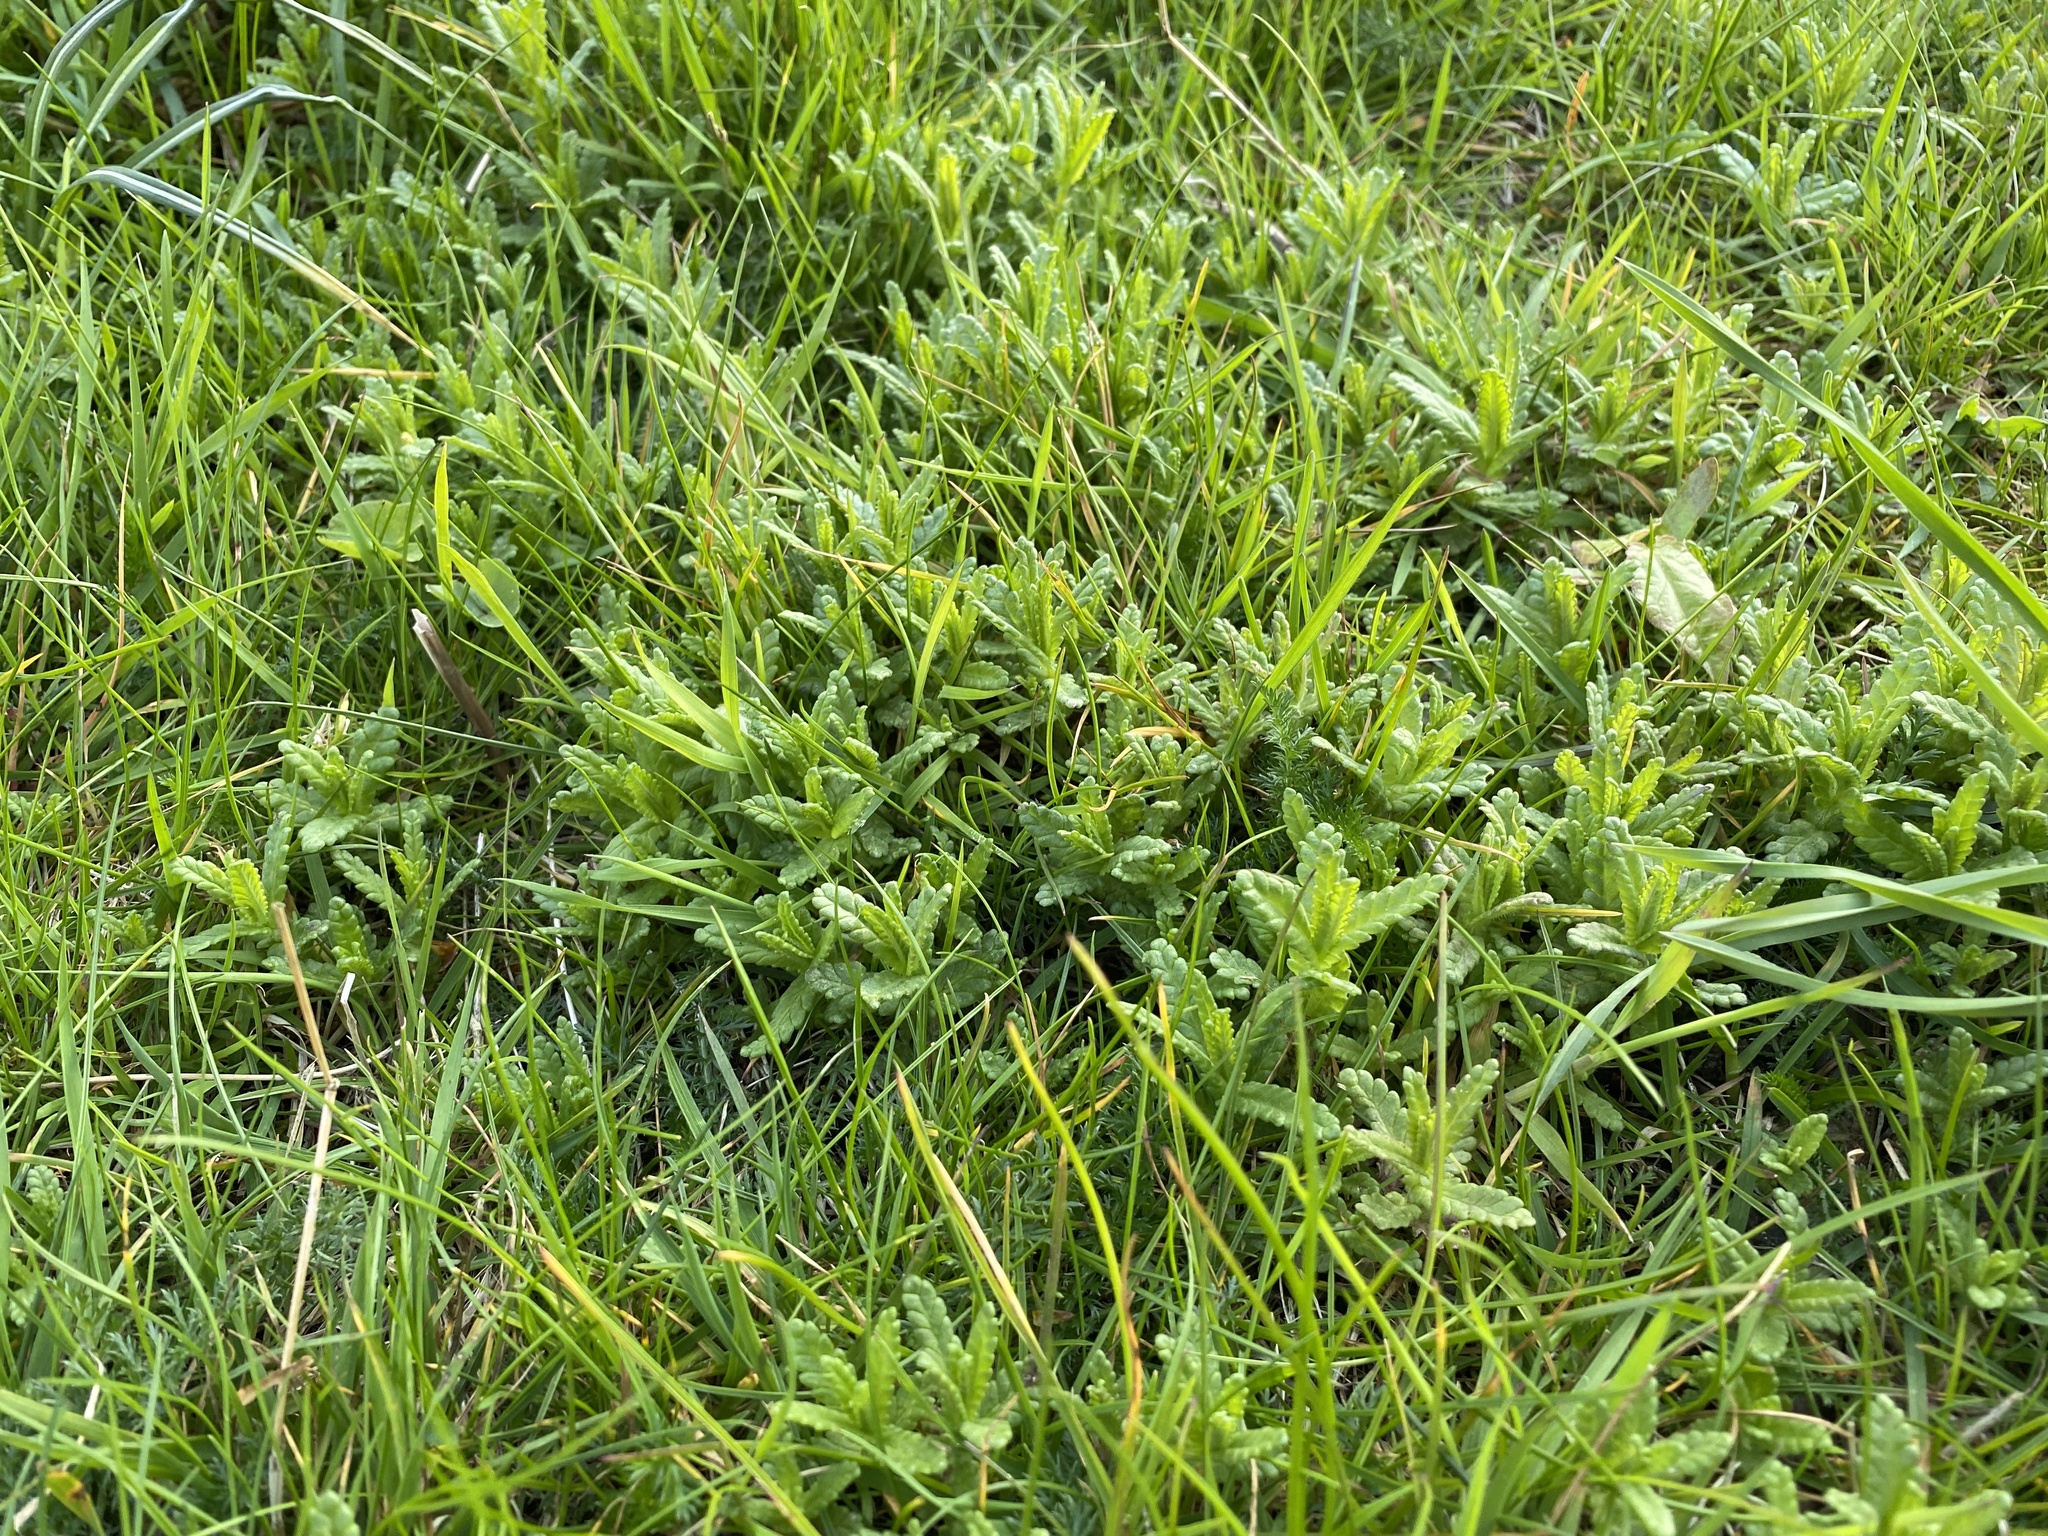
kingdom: Plantae
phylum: Tracheophyta
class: Magnoliopsida
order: Lamiales
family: Orobanchaceae
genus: Rhinanthus
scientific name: Rhinanthus minor
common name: Yellow-rattle
